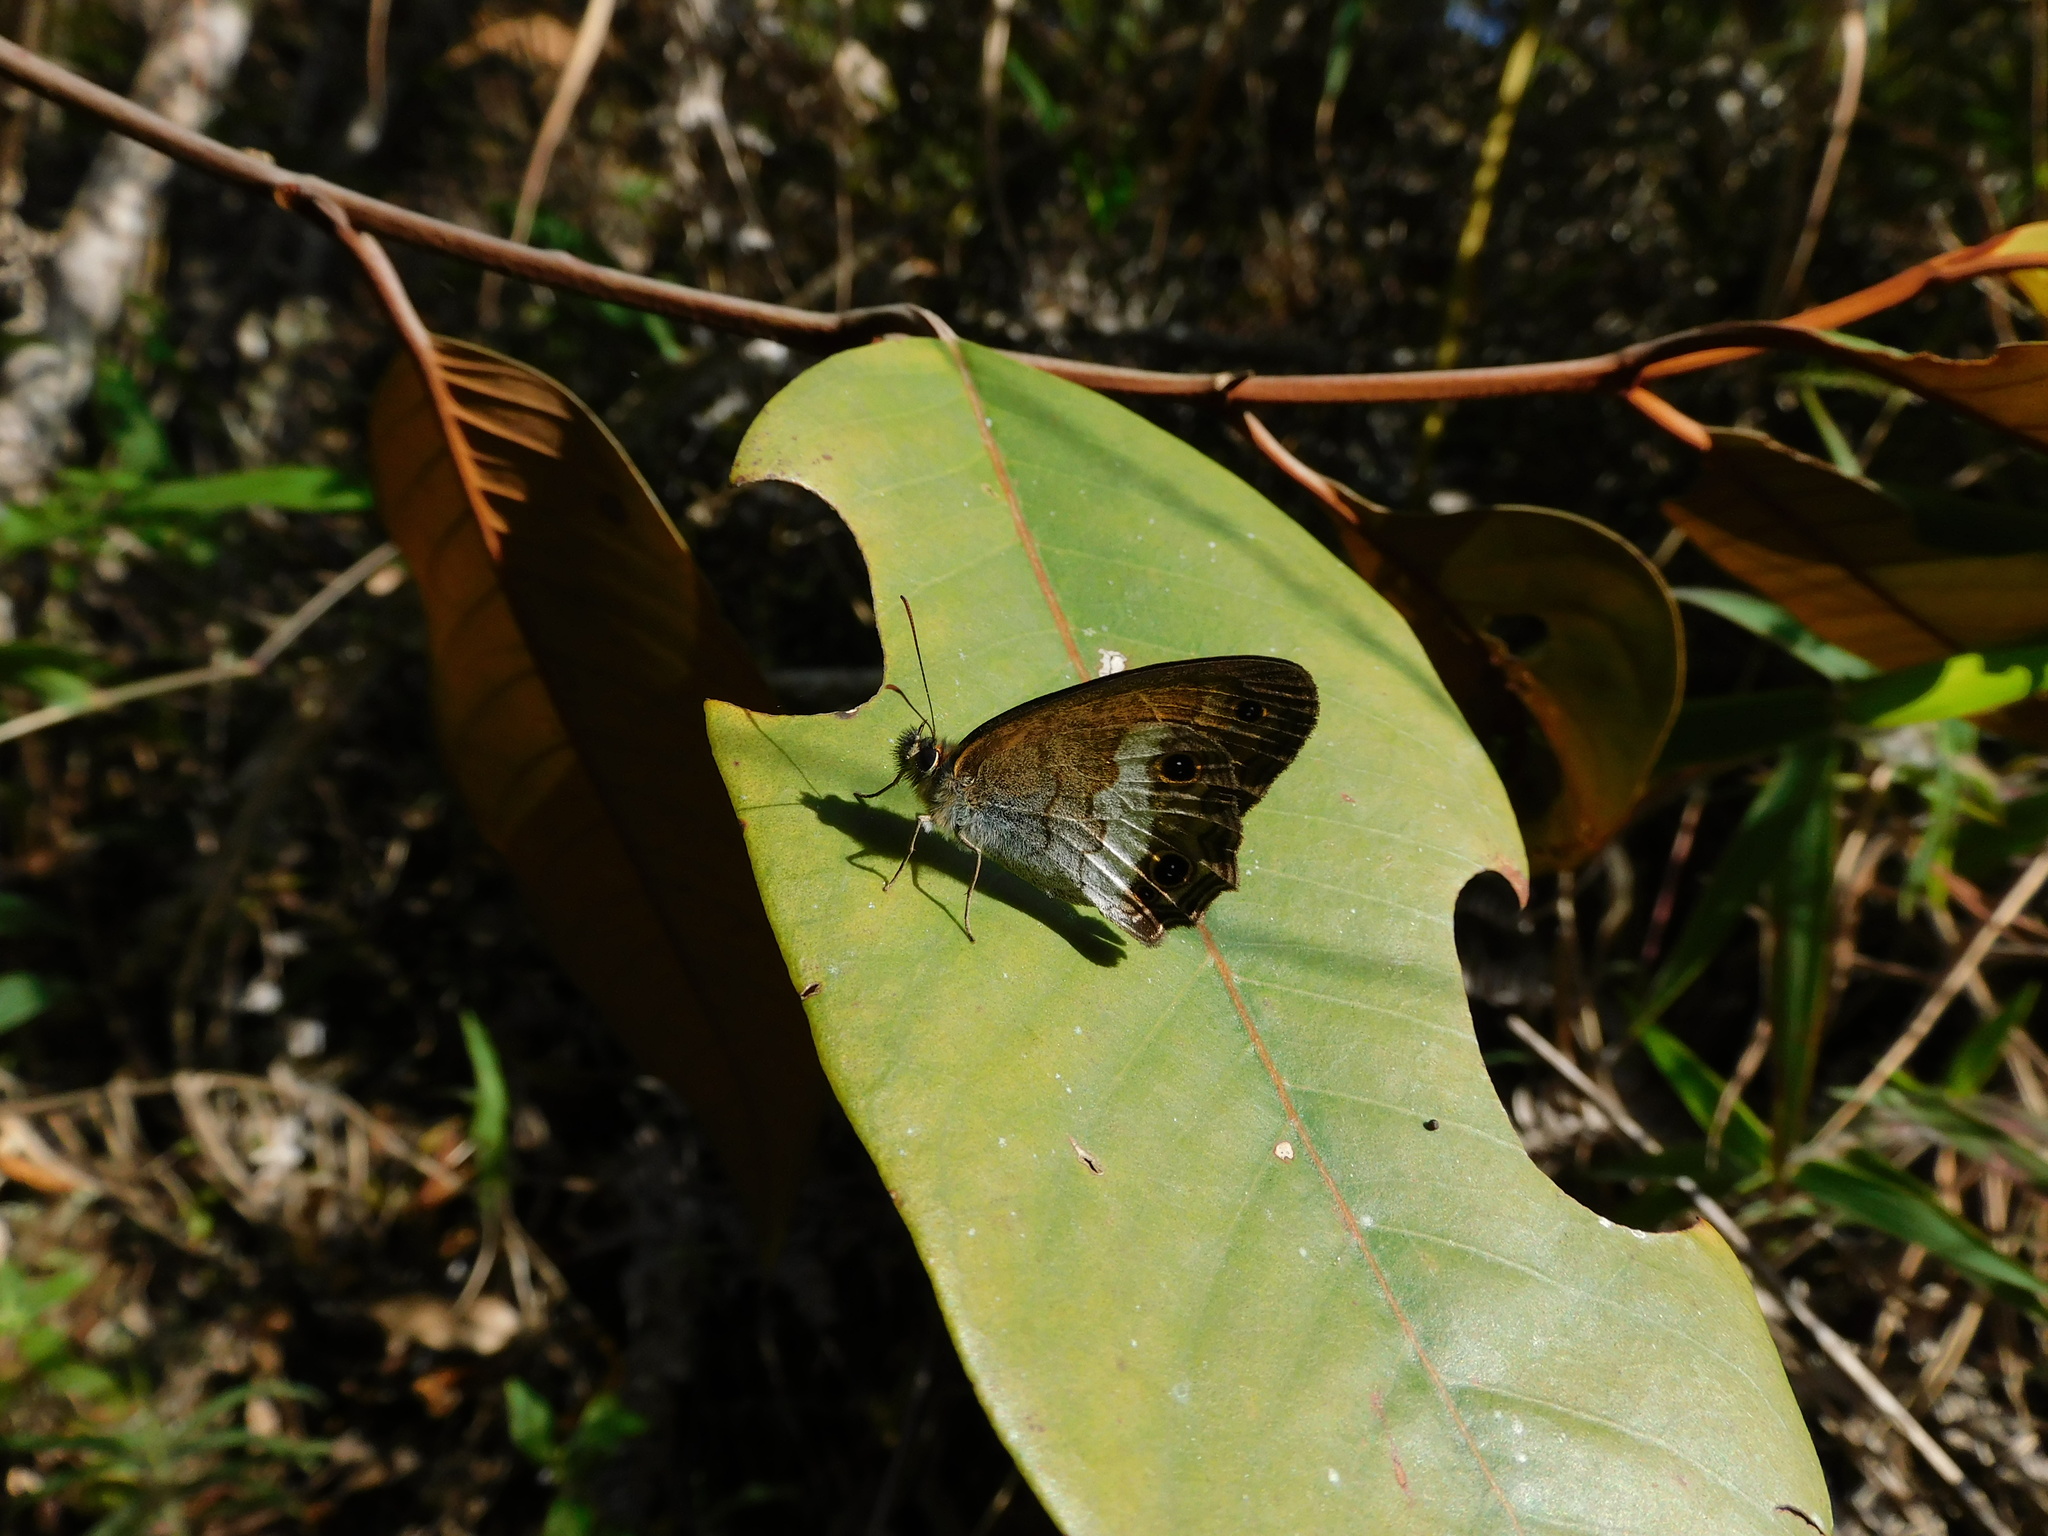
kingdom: Animalia
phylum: Arthropoda
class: Insecta
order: Lepidoptera
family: Nymphalidae
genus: Graphita
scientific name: Graphita griphe
